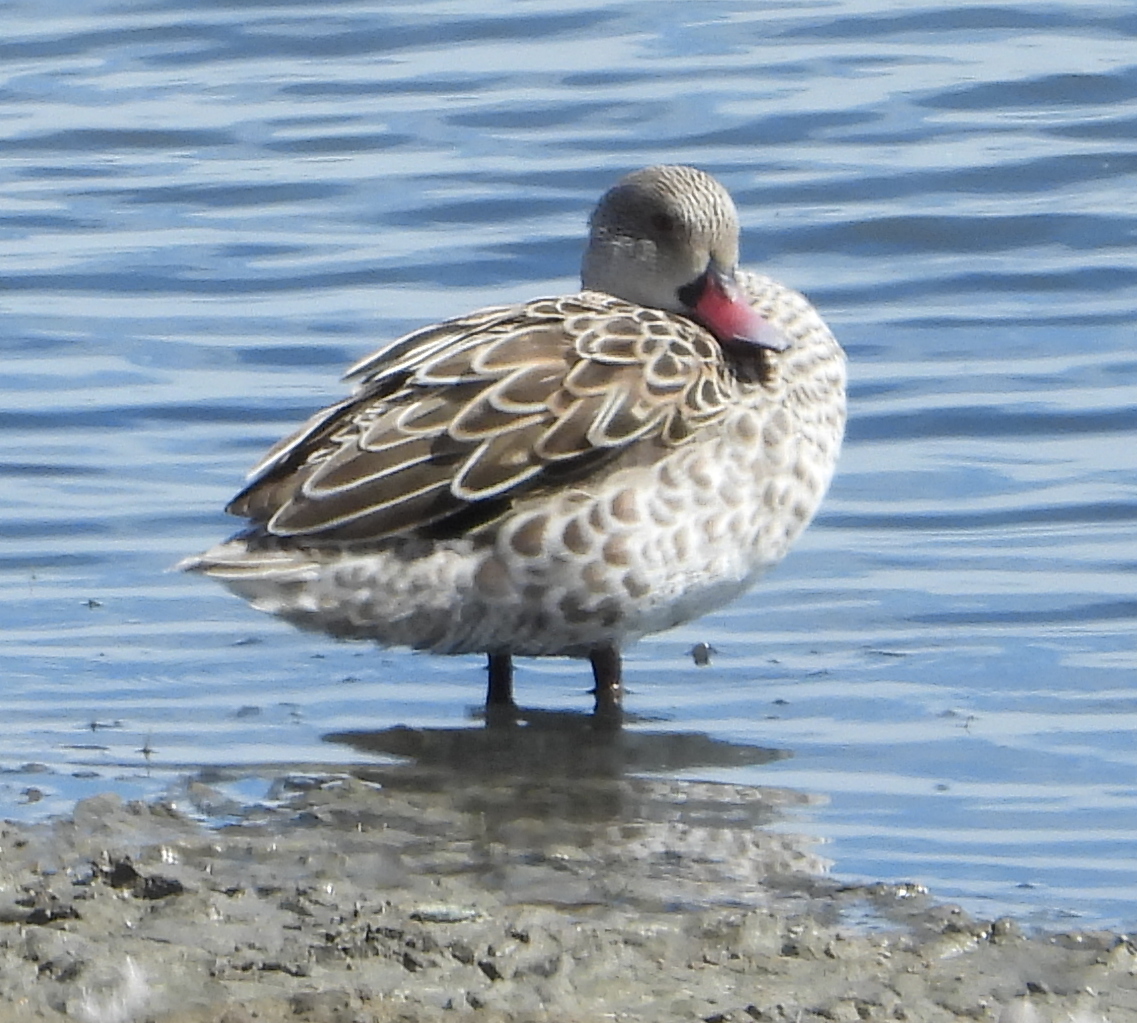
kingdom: Animalia
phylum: Chordata
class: Aves
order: Anseriformes
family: Anatidae
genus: Anas
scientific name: Anas capensis
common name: Cape teal
